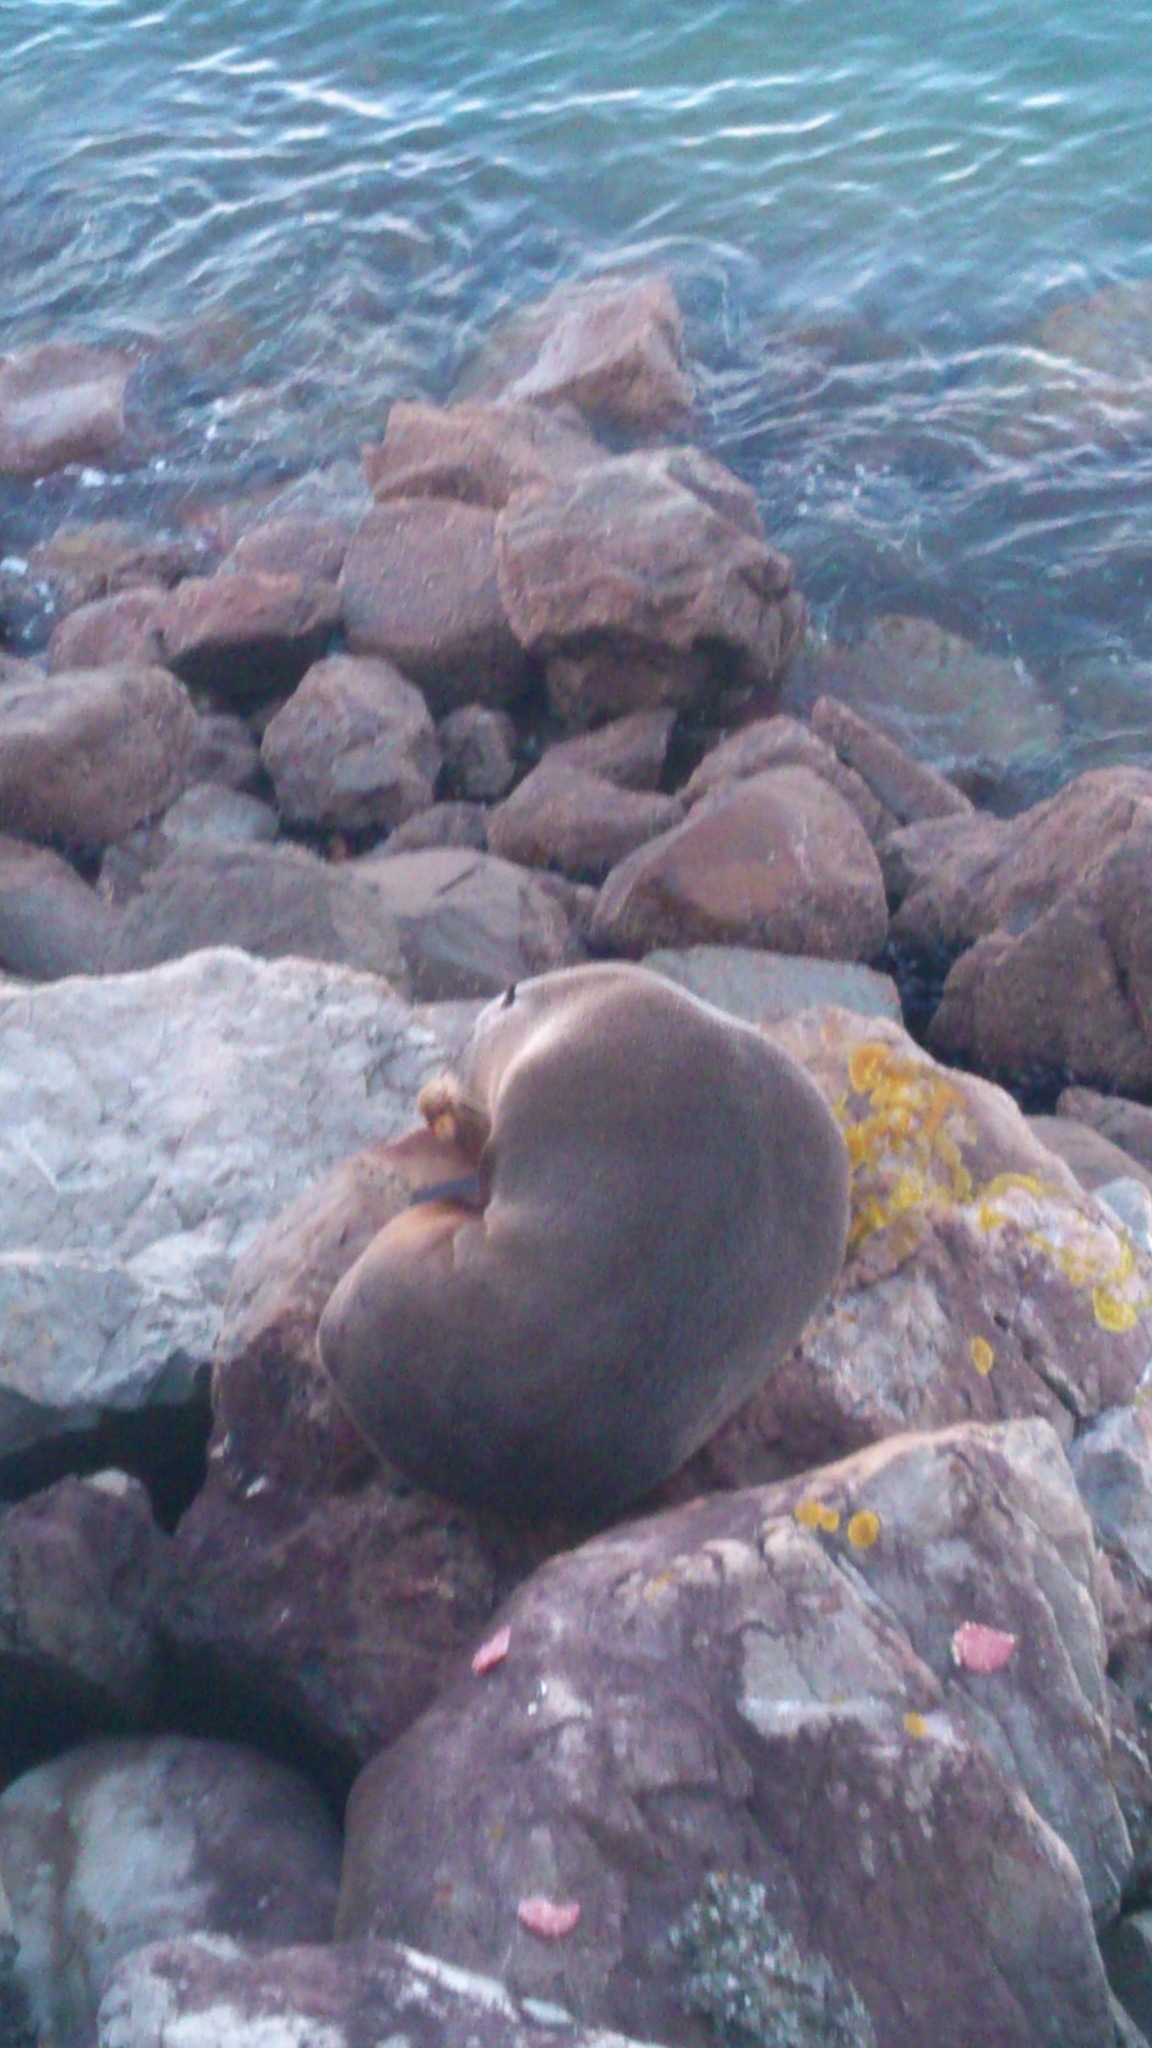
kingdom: Animalia
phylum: Chordata
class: Mammalia
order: Carnivora
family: Otariidae
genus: Arctocephalus
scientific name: Arctocephalus forsteri
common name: New zealand fur seal
